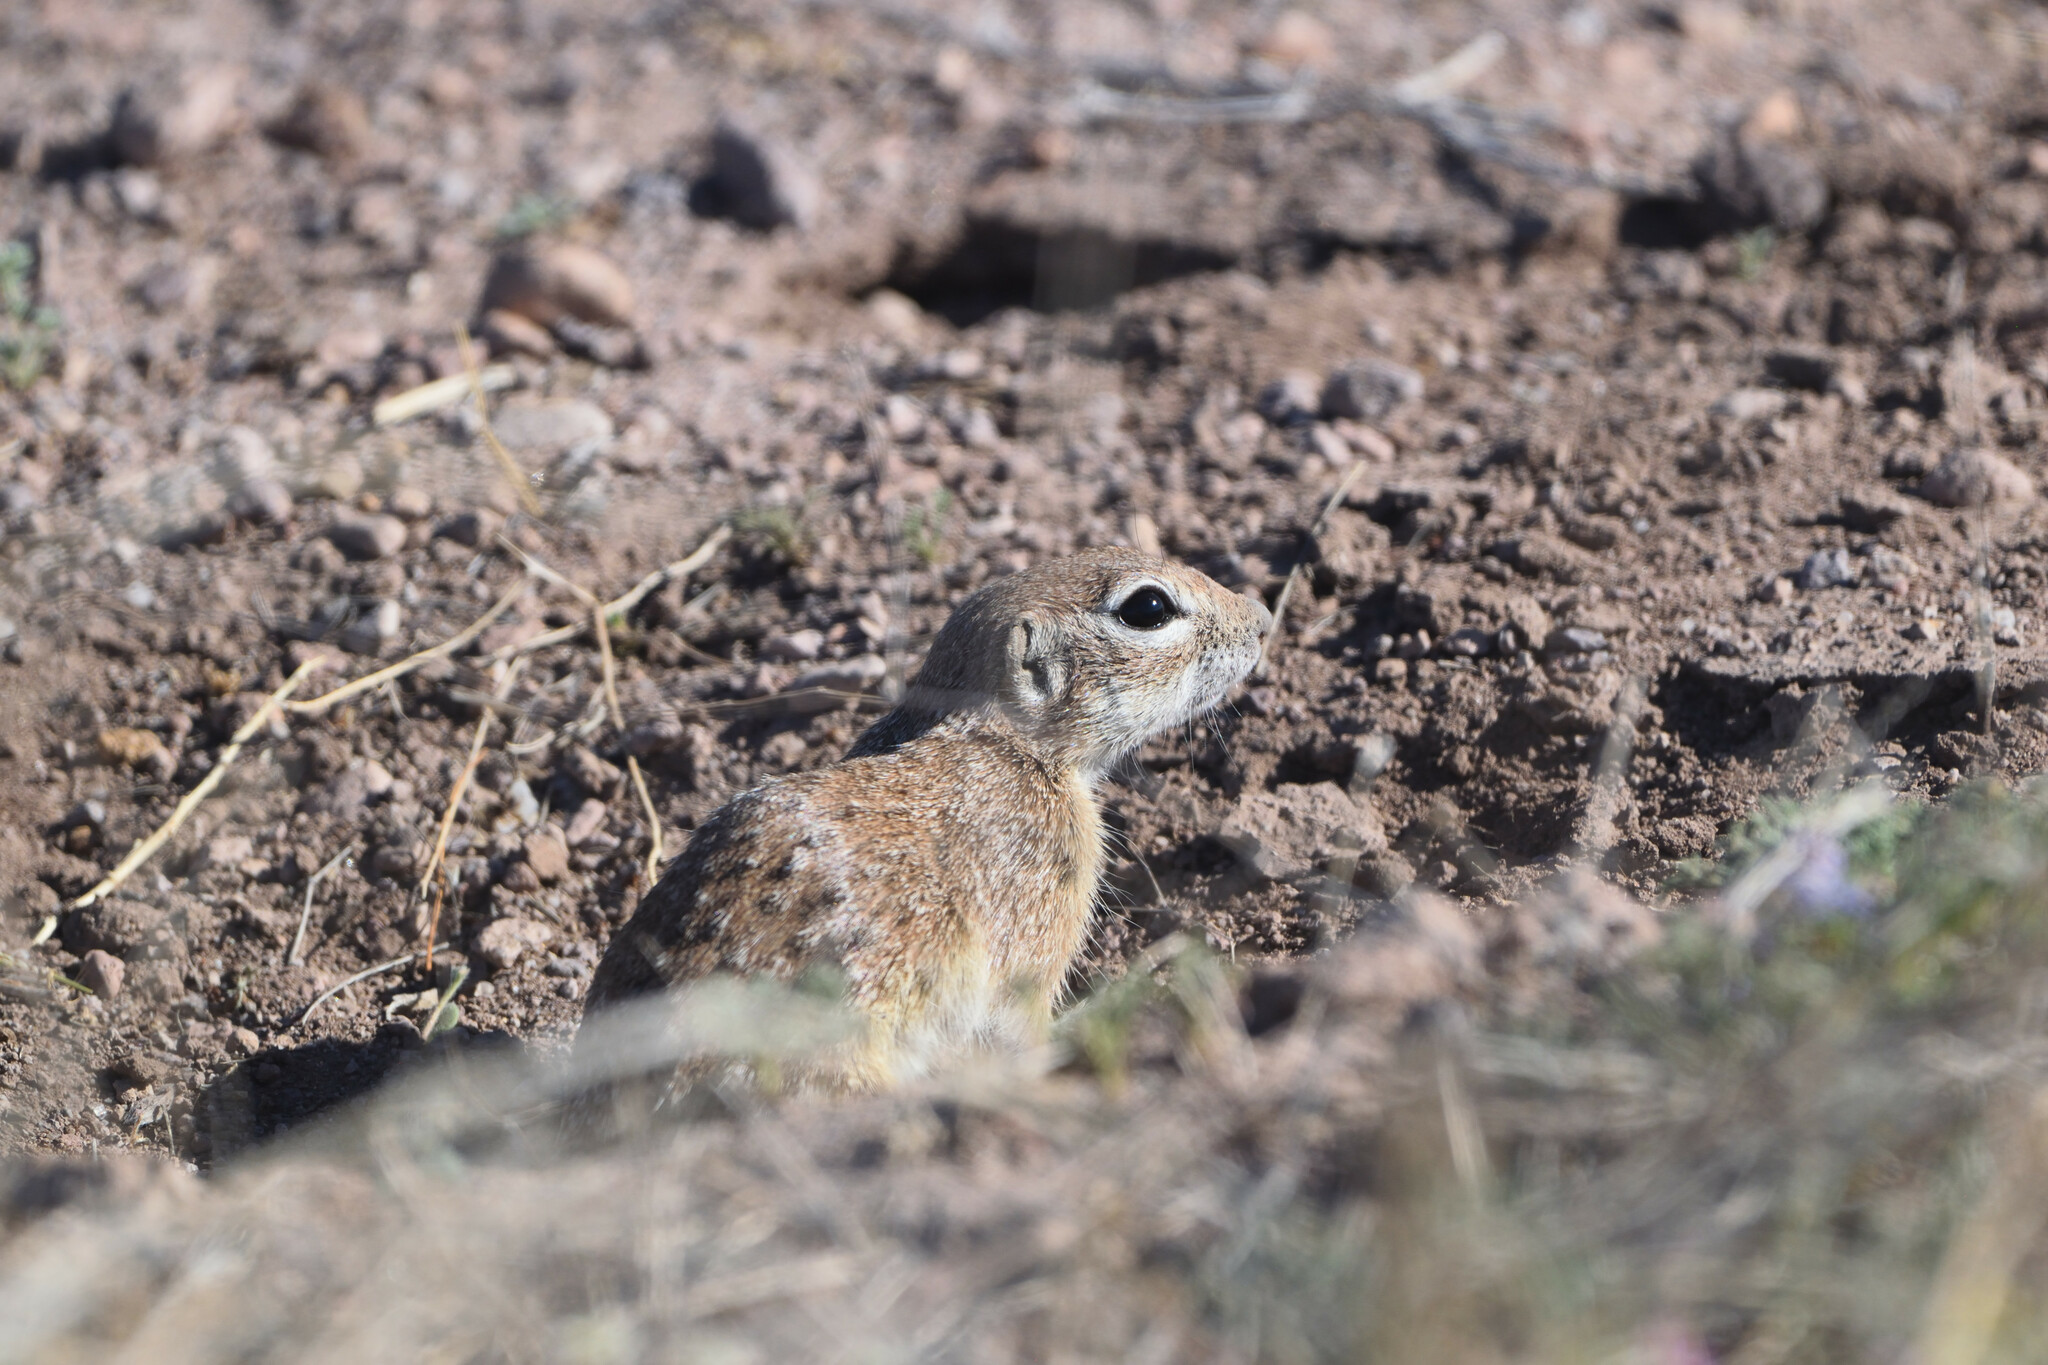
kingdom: Animalia
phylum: Chordata
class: Mammalia
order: Rodentia
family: Sciuridae
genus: Xerospermophilus
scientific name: Xerospermophilus spilosoma
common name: Spotted ground squirrel
